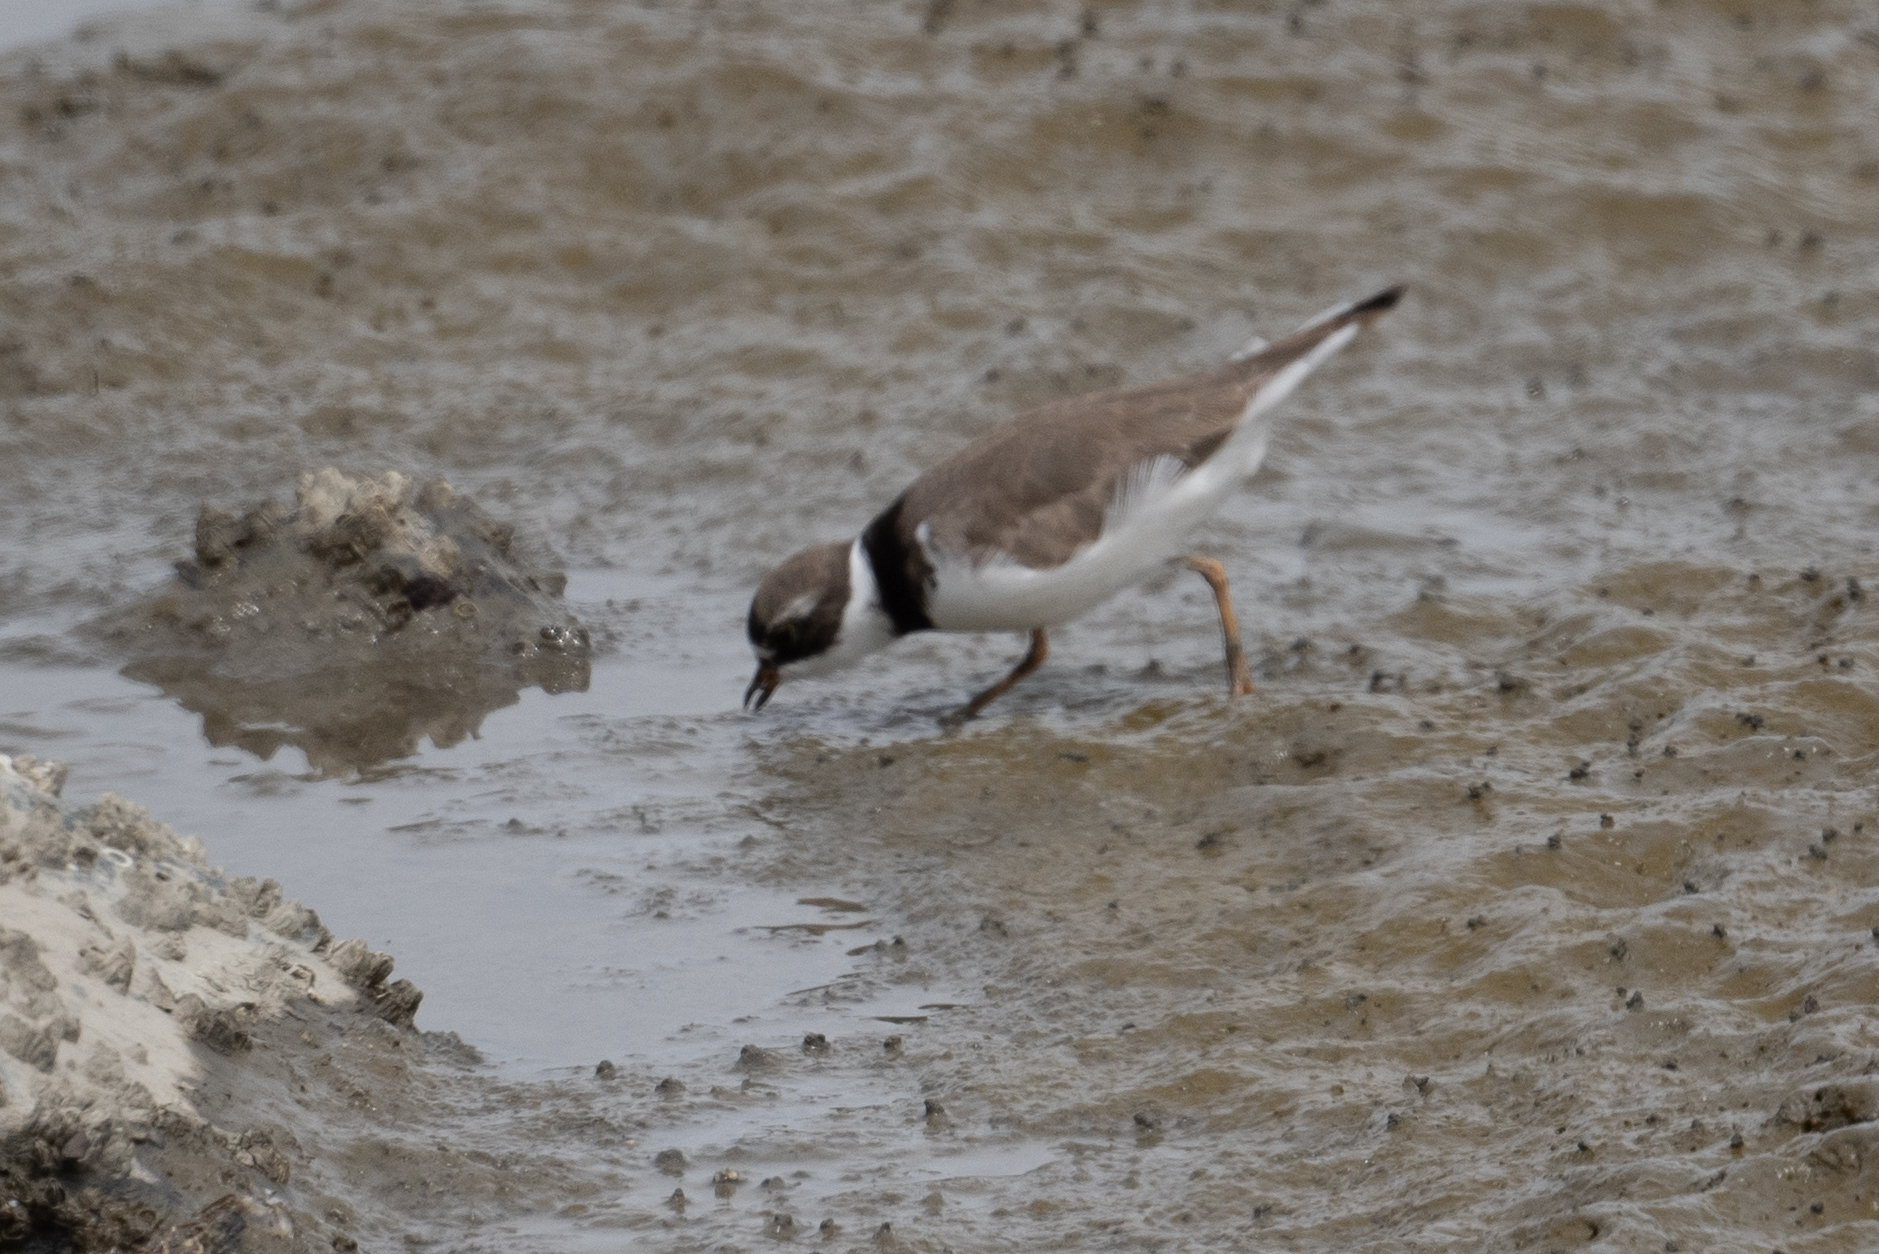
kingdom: Animalia
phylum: Chordata
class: Aves
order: Charadriiformes
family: Charadriidae
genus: Charadrius
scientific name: Charadrius semipalmatus
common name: Semipalmated plover
